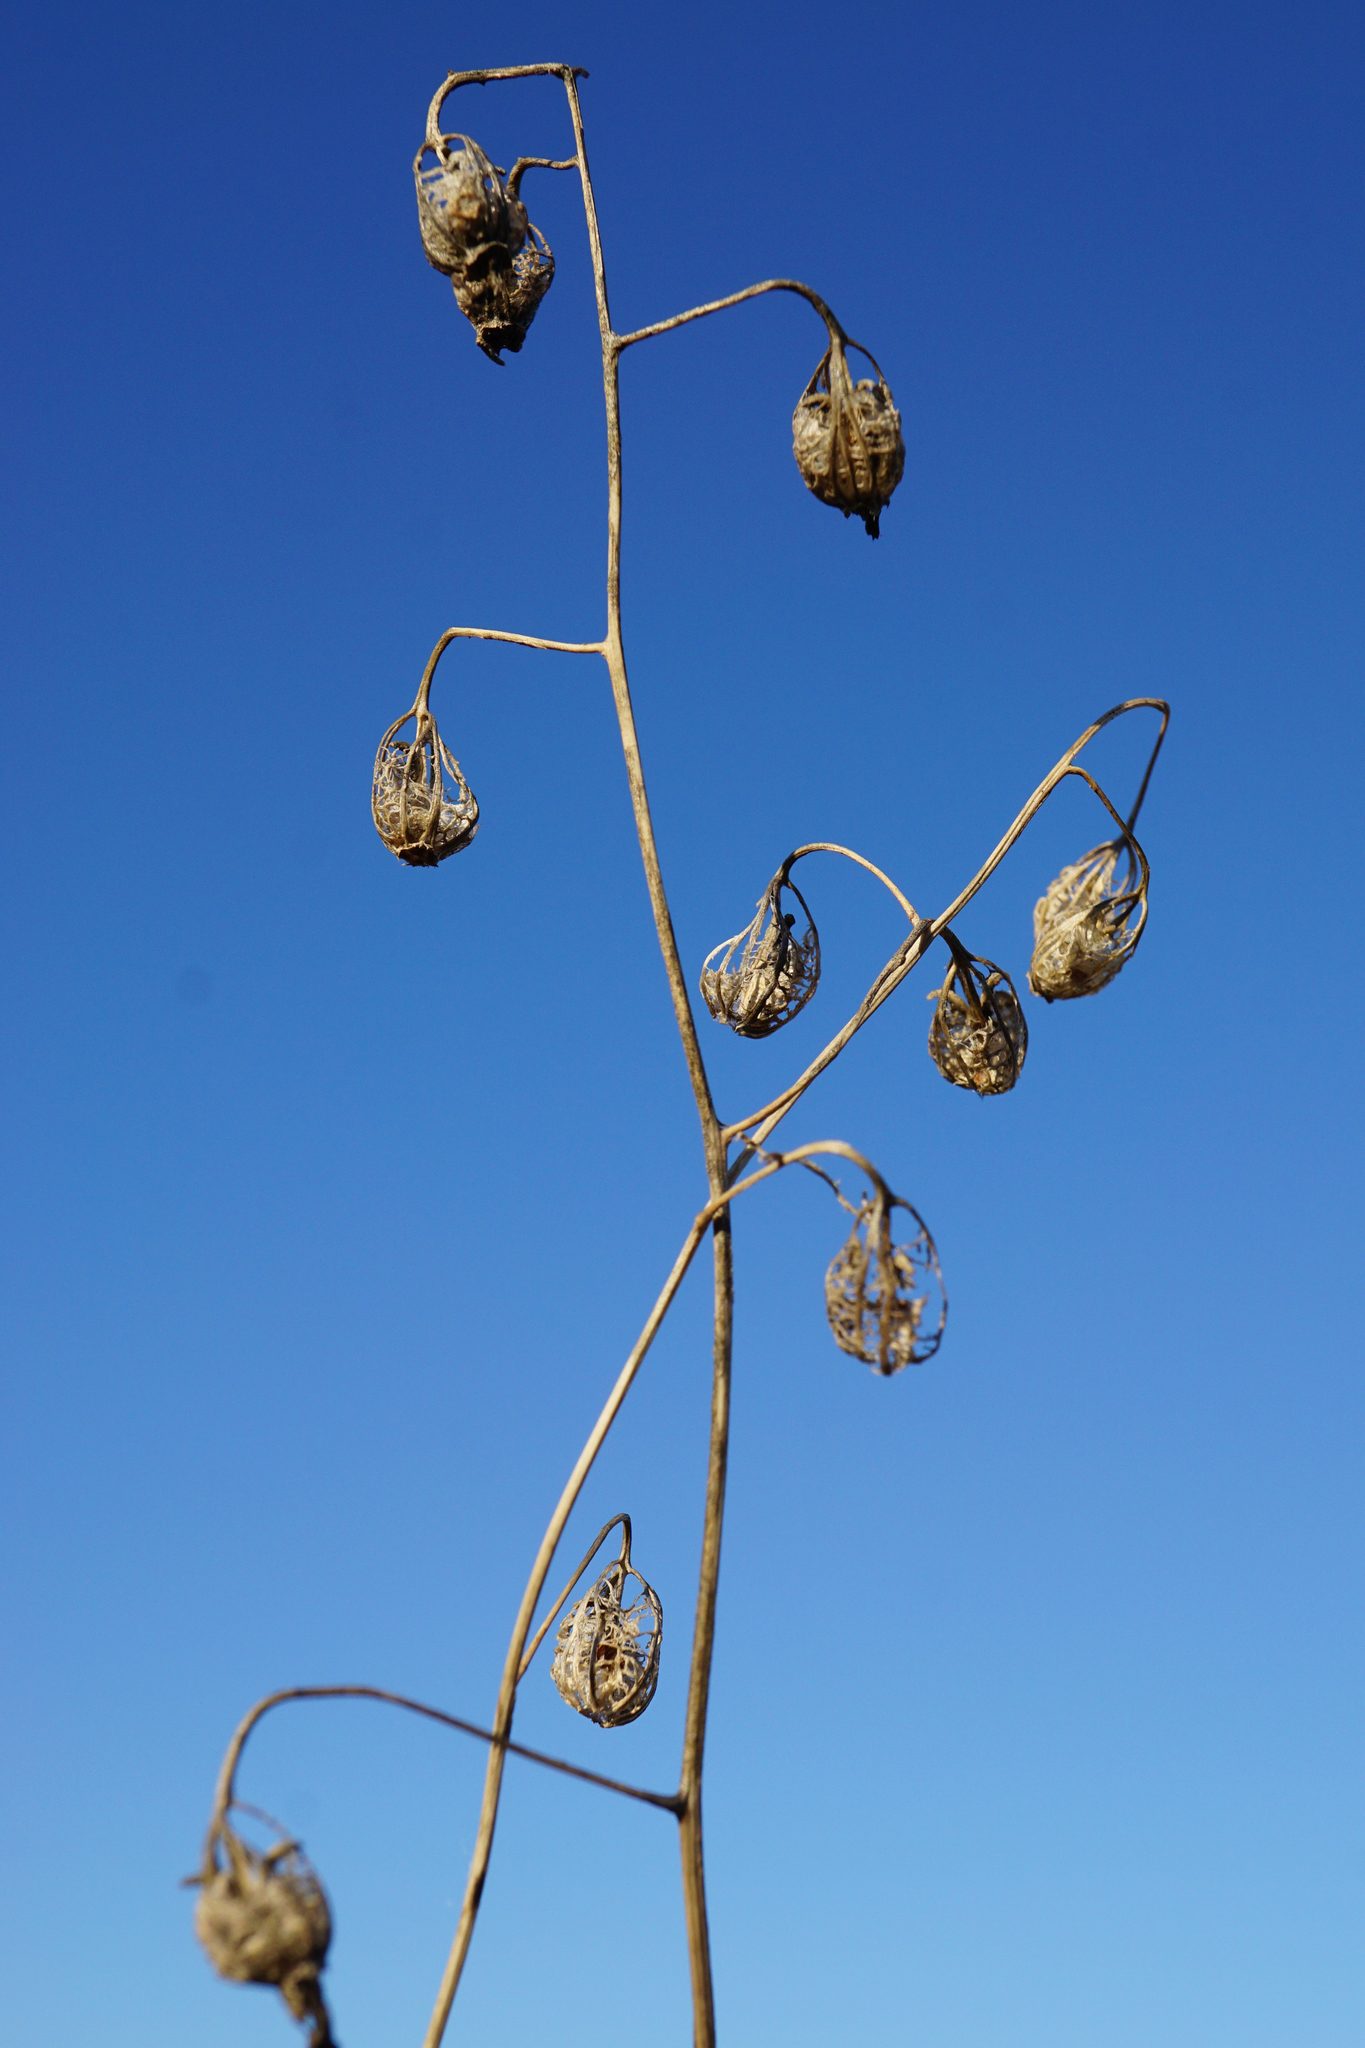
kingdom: Plantae
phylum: Tracheophyta
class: Magnoliopsida
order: Asterales
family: Campanulaceae
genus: Adenophora
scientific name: Adenophora liliifolia
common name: Lilyleaf ladybells
